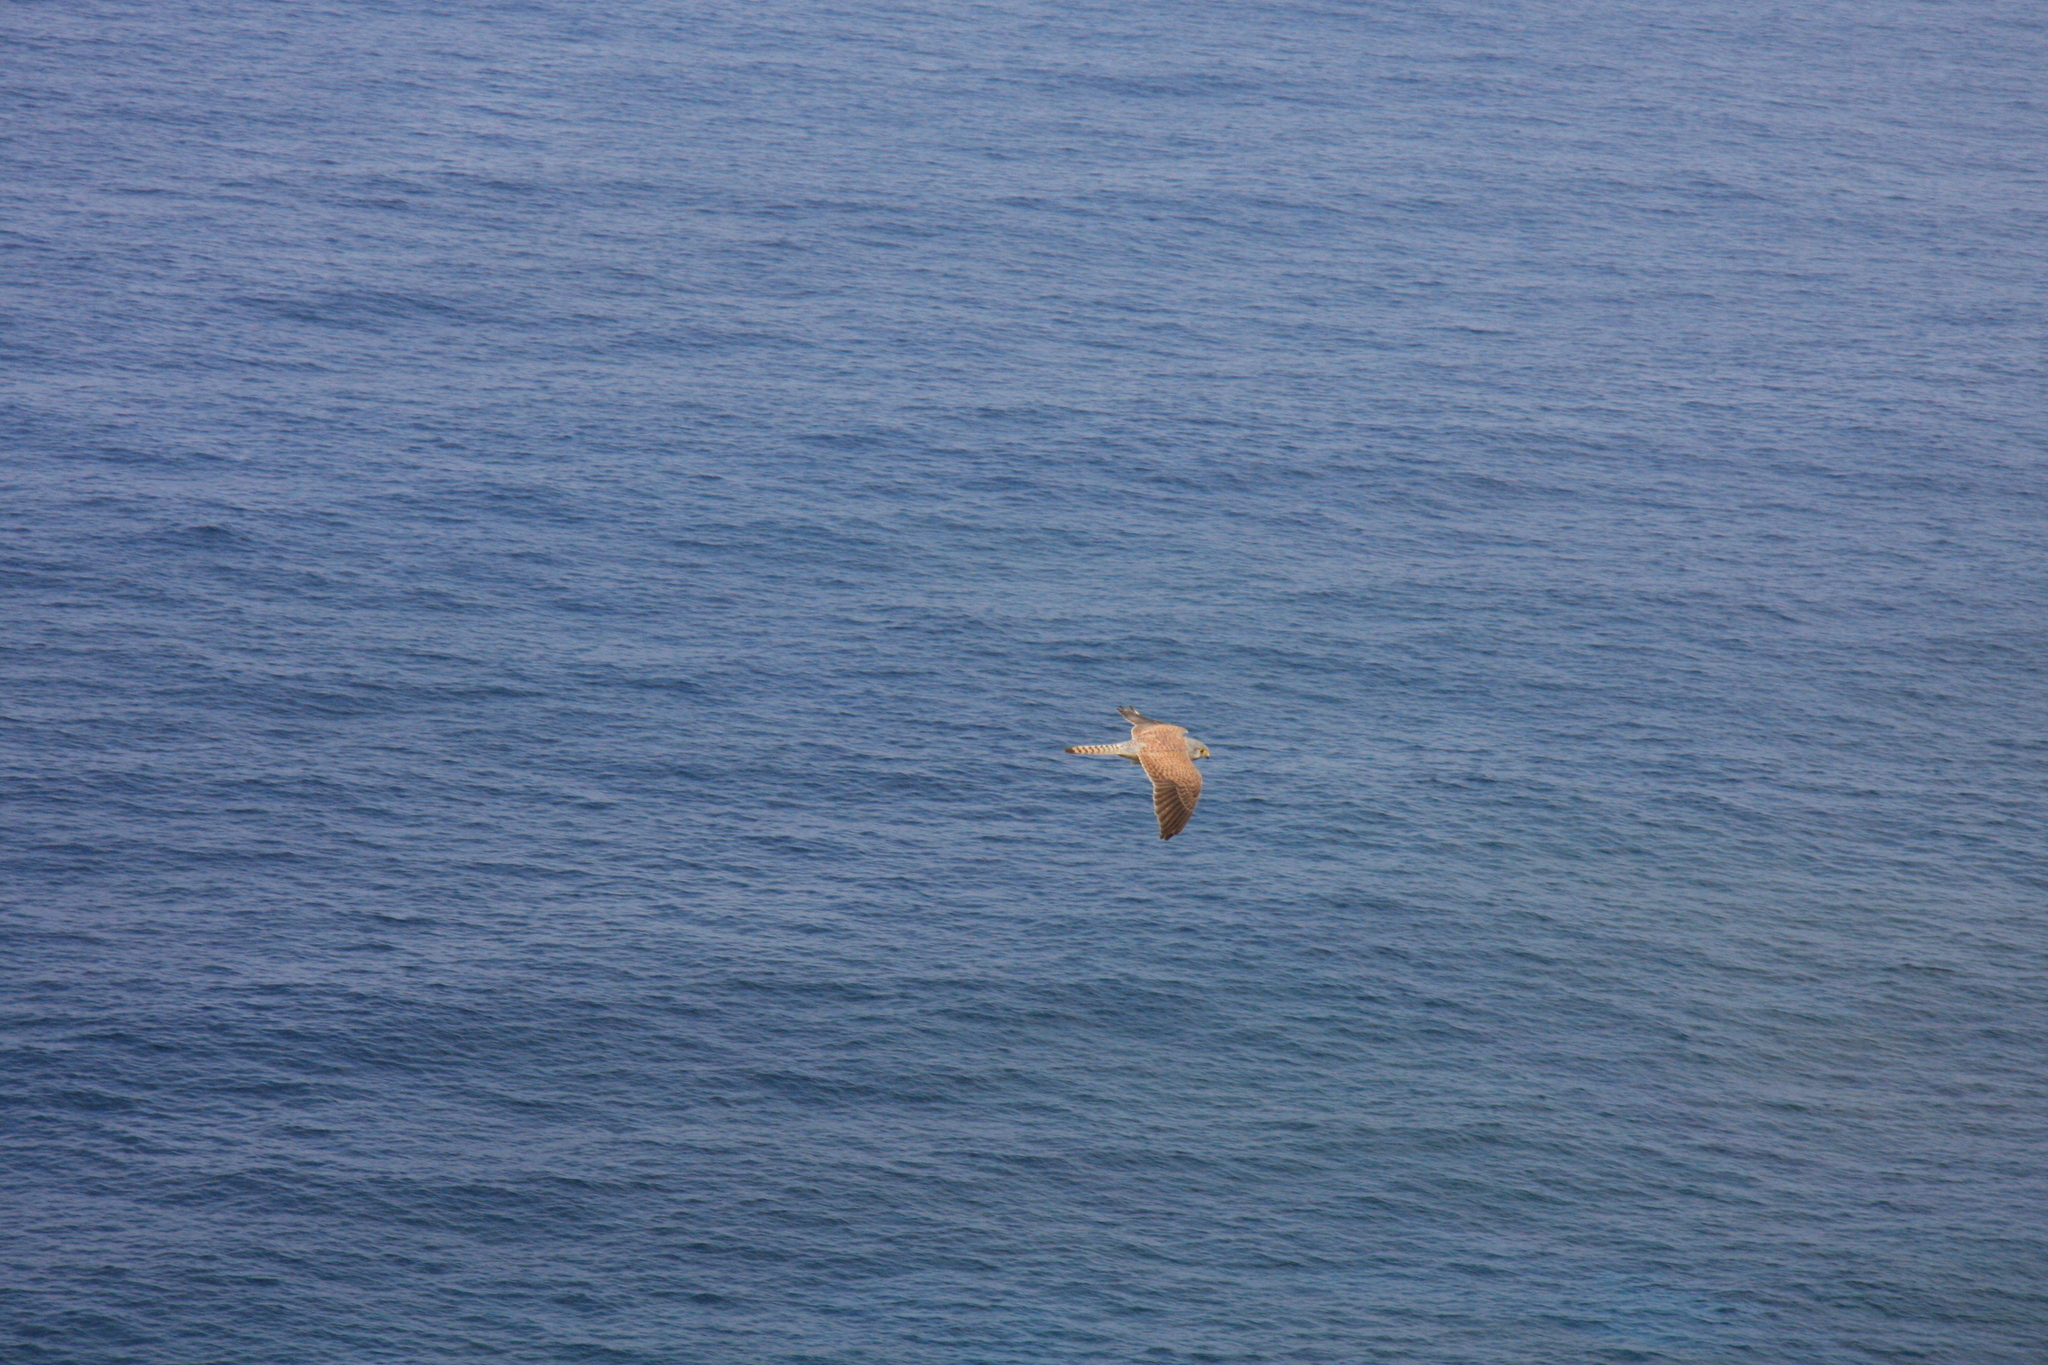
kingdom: Animalia
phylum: Chordata
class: Aves
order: Falconiformes
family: Falconidae
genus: Falco
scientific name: Falco tinnunculus
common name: Common kestrel
